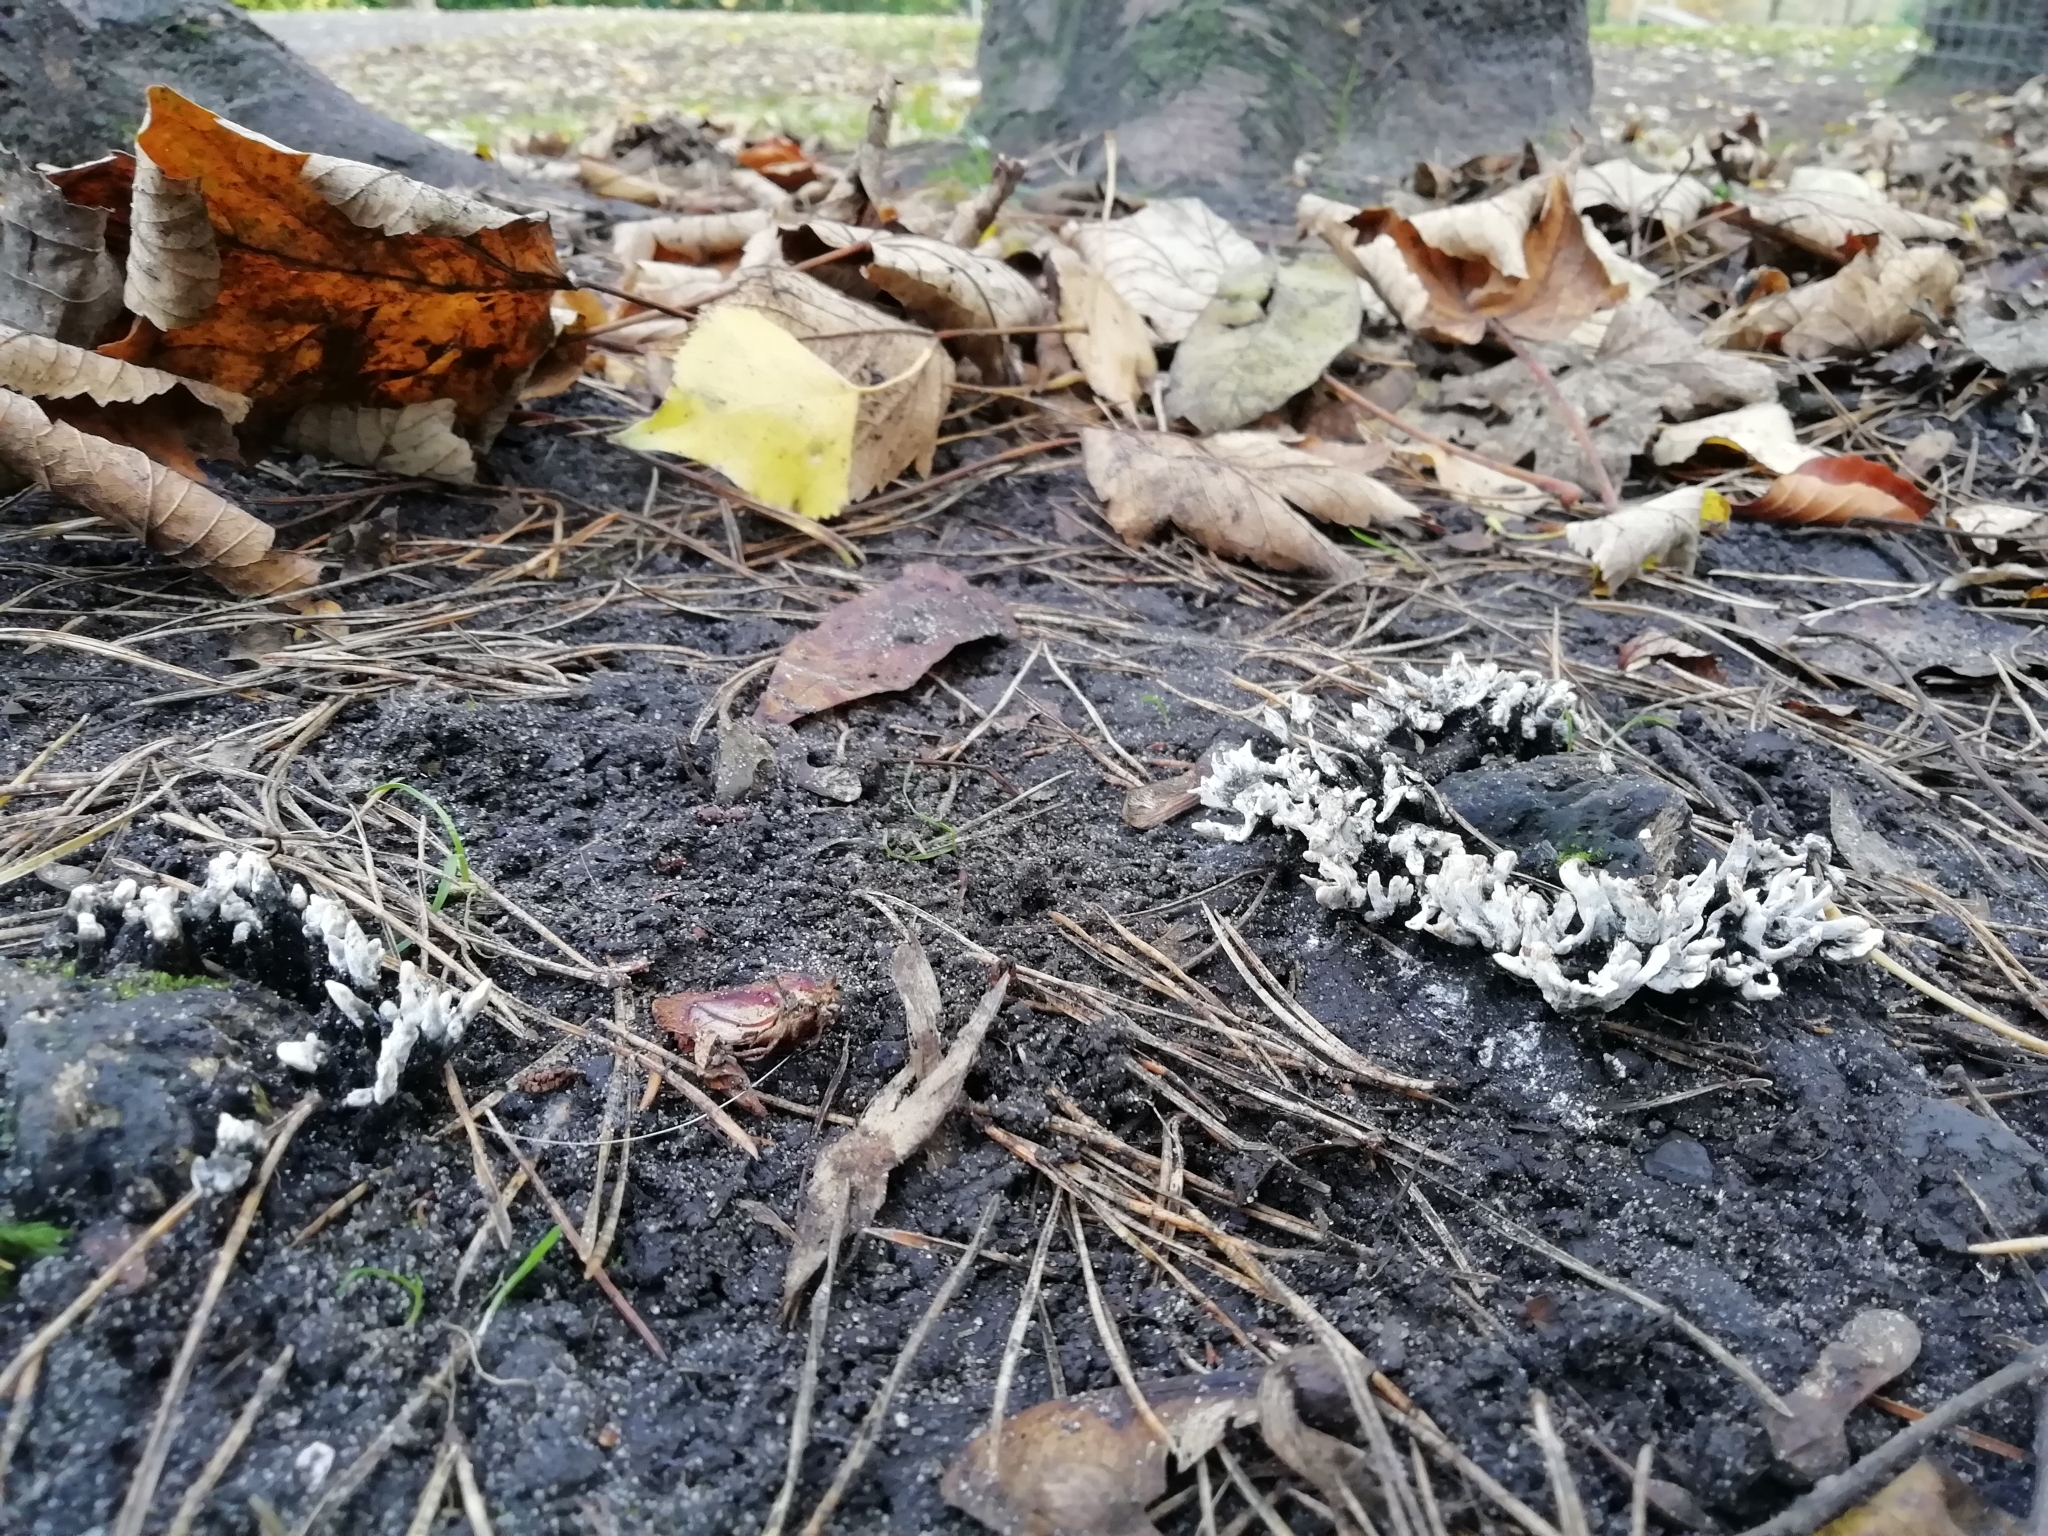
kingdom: Fungi
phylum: Ascomycota
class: Sordariomycetes
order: Xylariales
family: Xylariaceae
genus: Xylaria
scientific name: Xylaria hypoxylon
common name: Candle-snuff fungus
